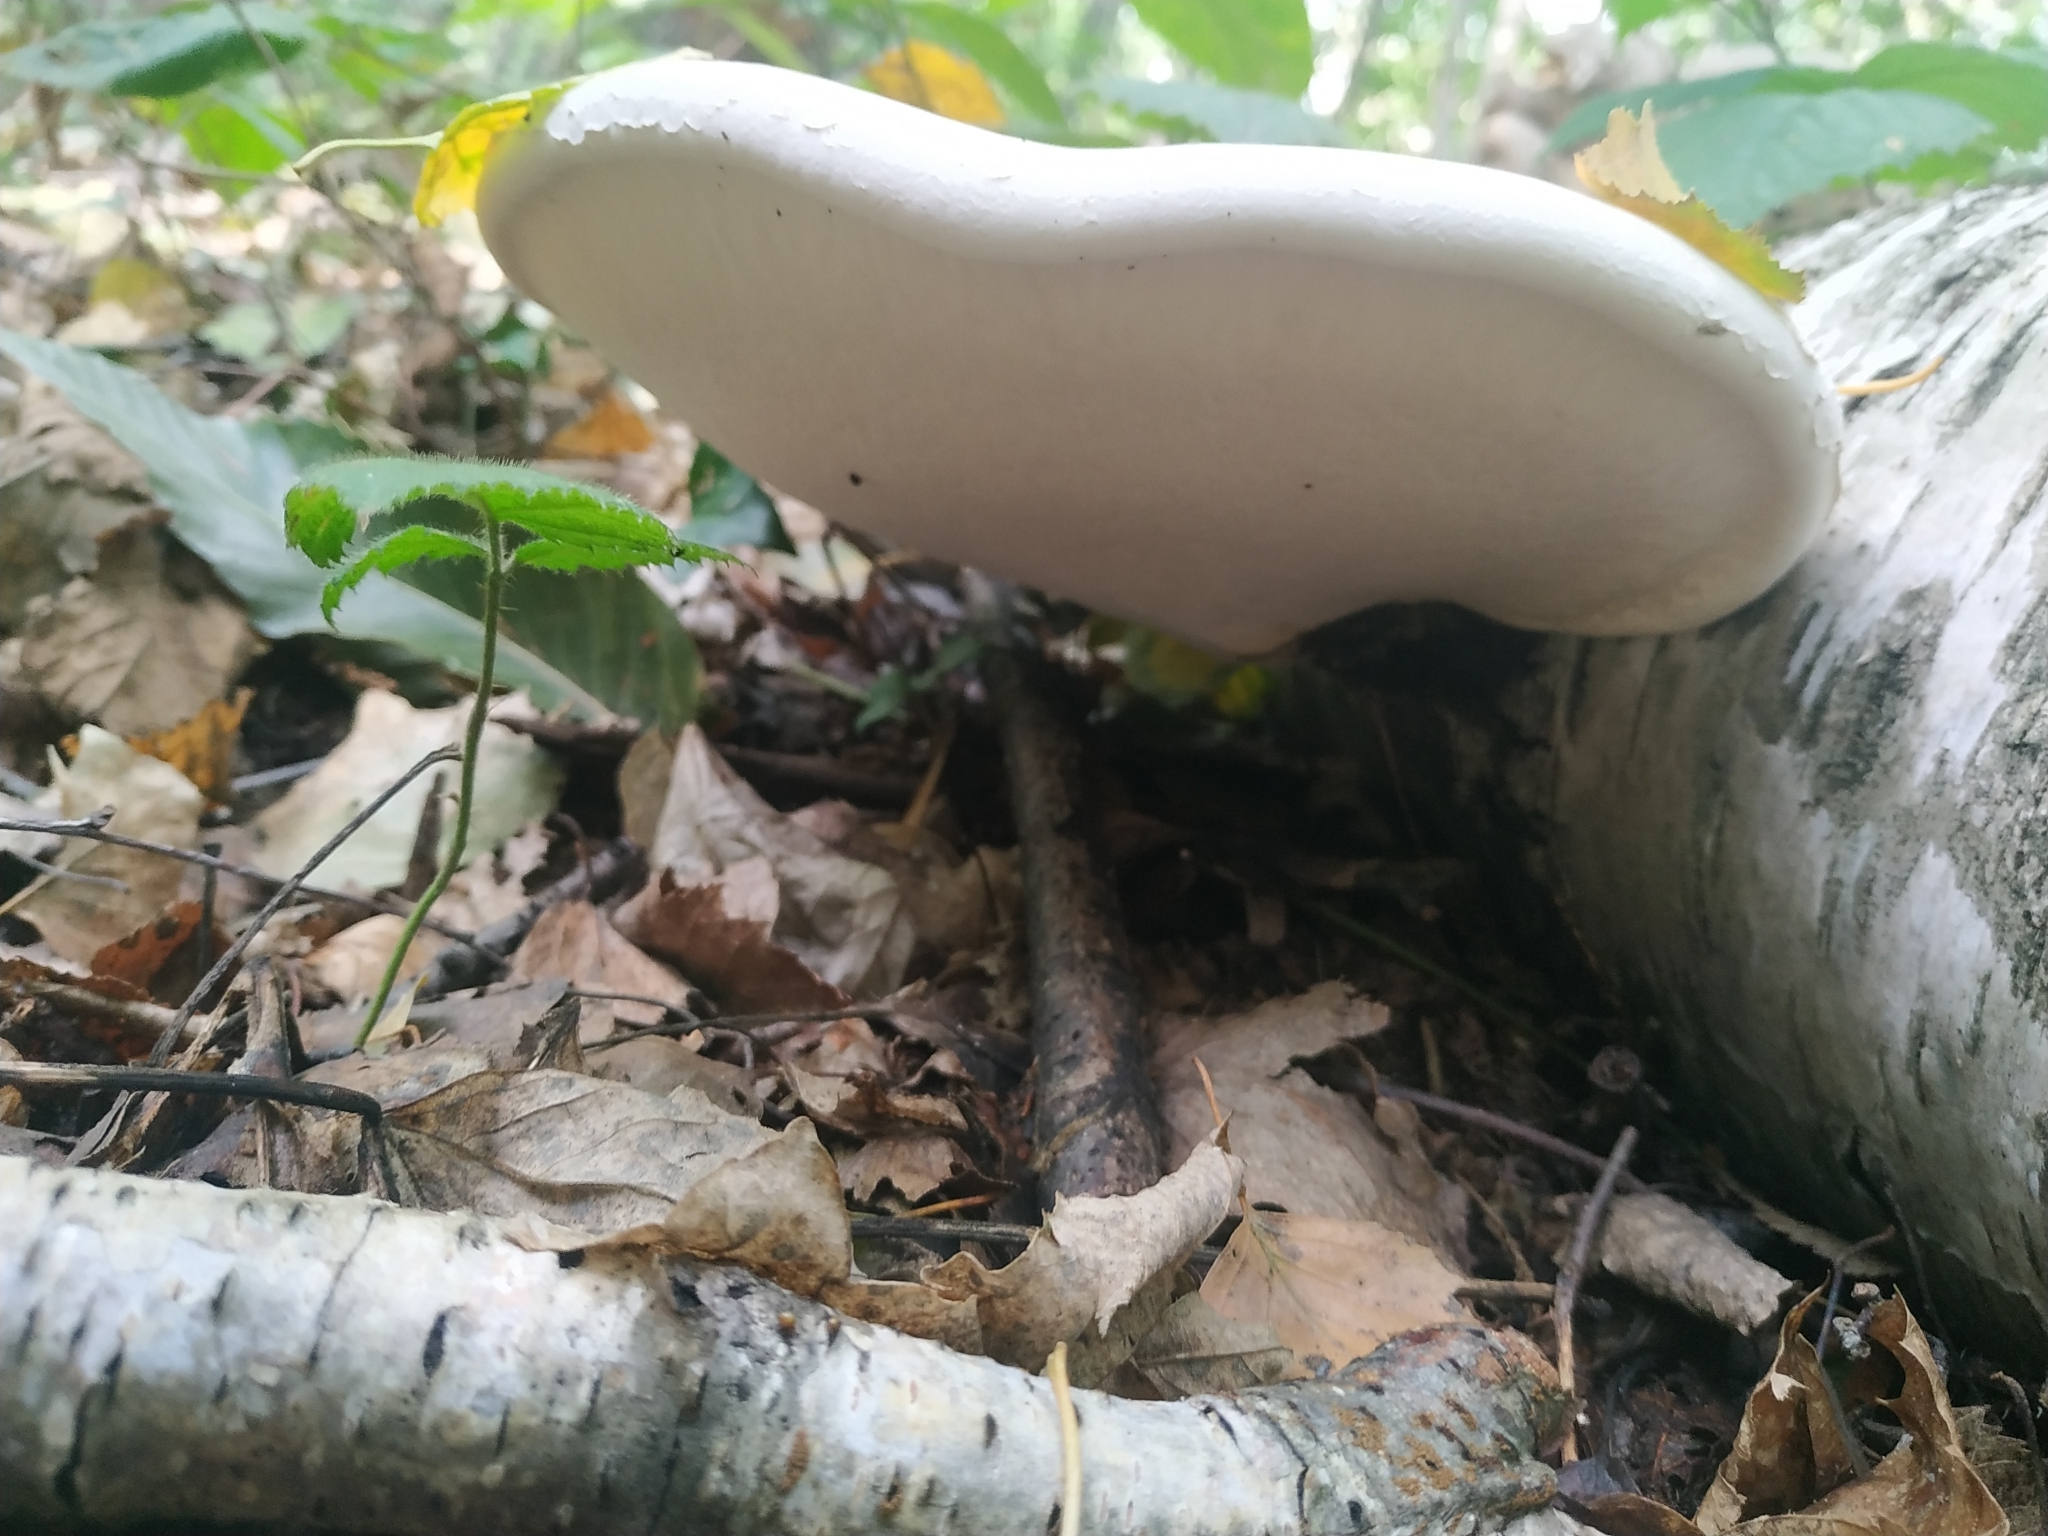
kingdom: Fungi
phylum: Basidiomycota
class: Agaricomycetes
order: Polyporales
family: Fomitopsidaceae
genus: Fomitopsis
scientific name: Fomitopsis betulina
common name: Birch polypore
